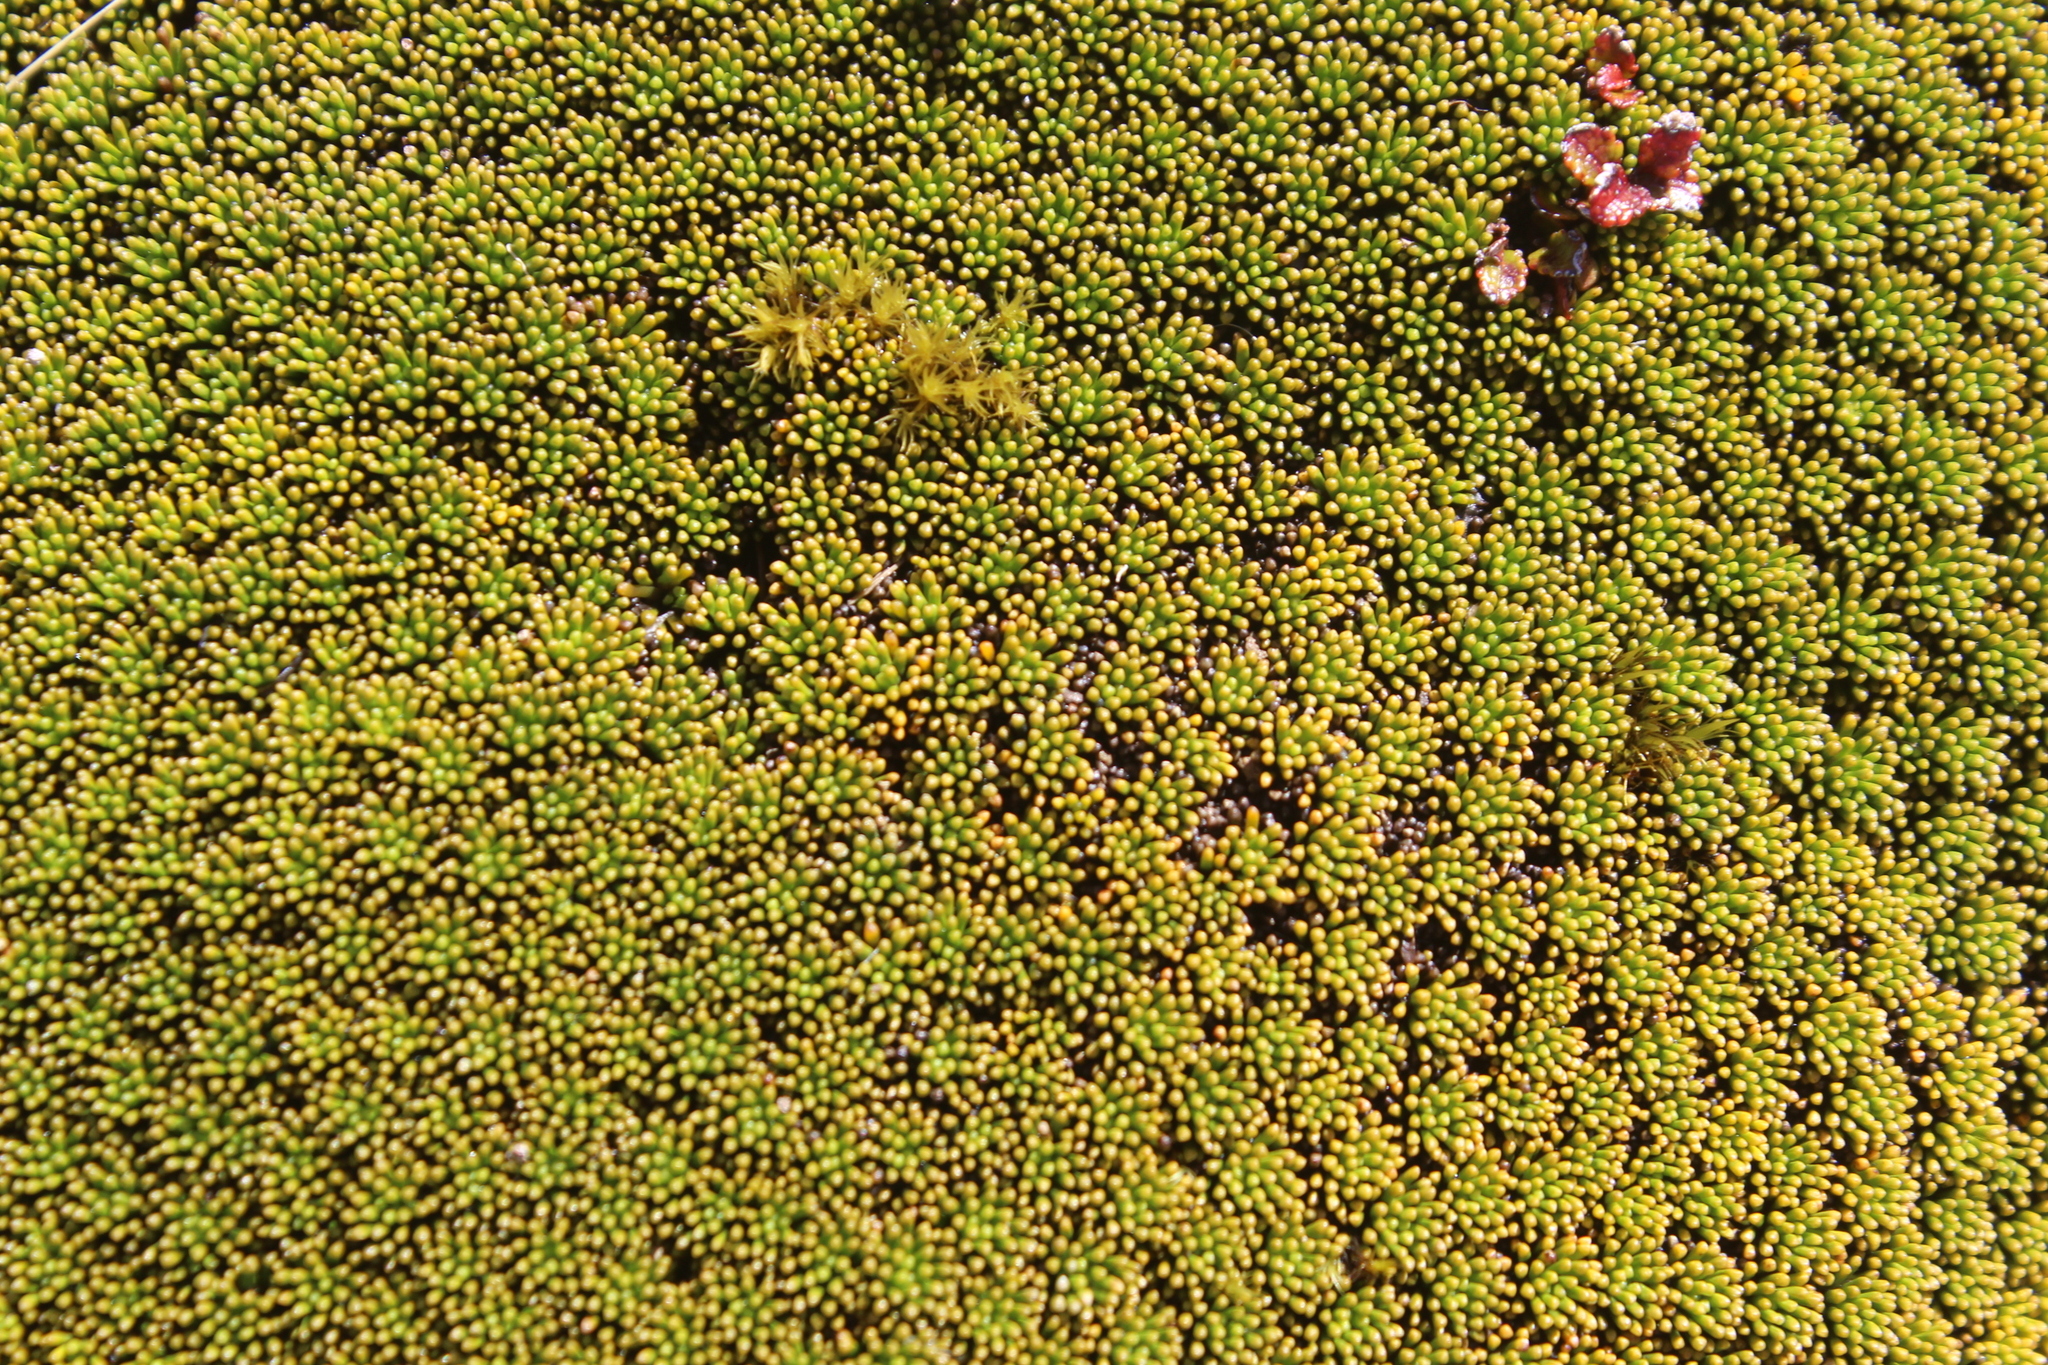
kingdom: Plantae
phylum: Tracheophyta
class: Magnoliopsida
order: Asterales
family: Stylidiaceae
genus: Phyllachne
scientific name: Phyllachne colensoi
